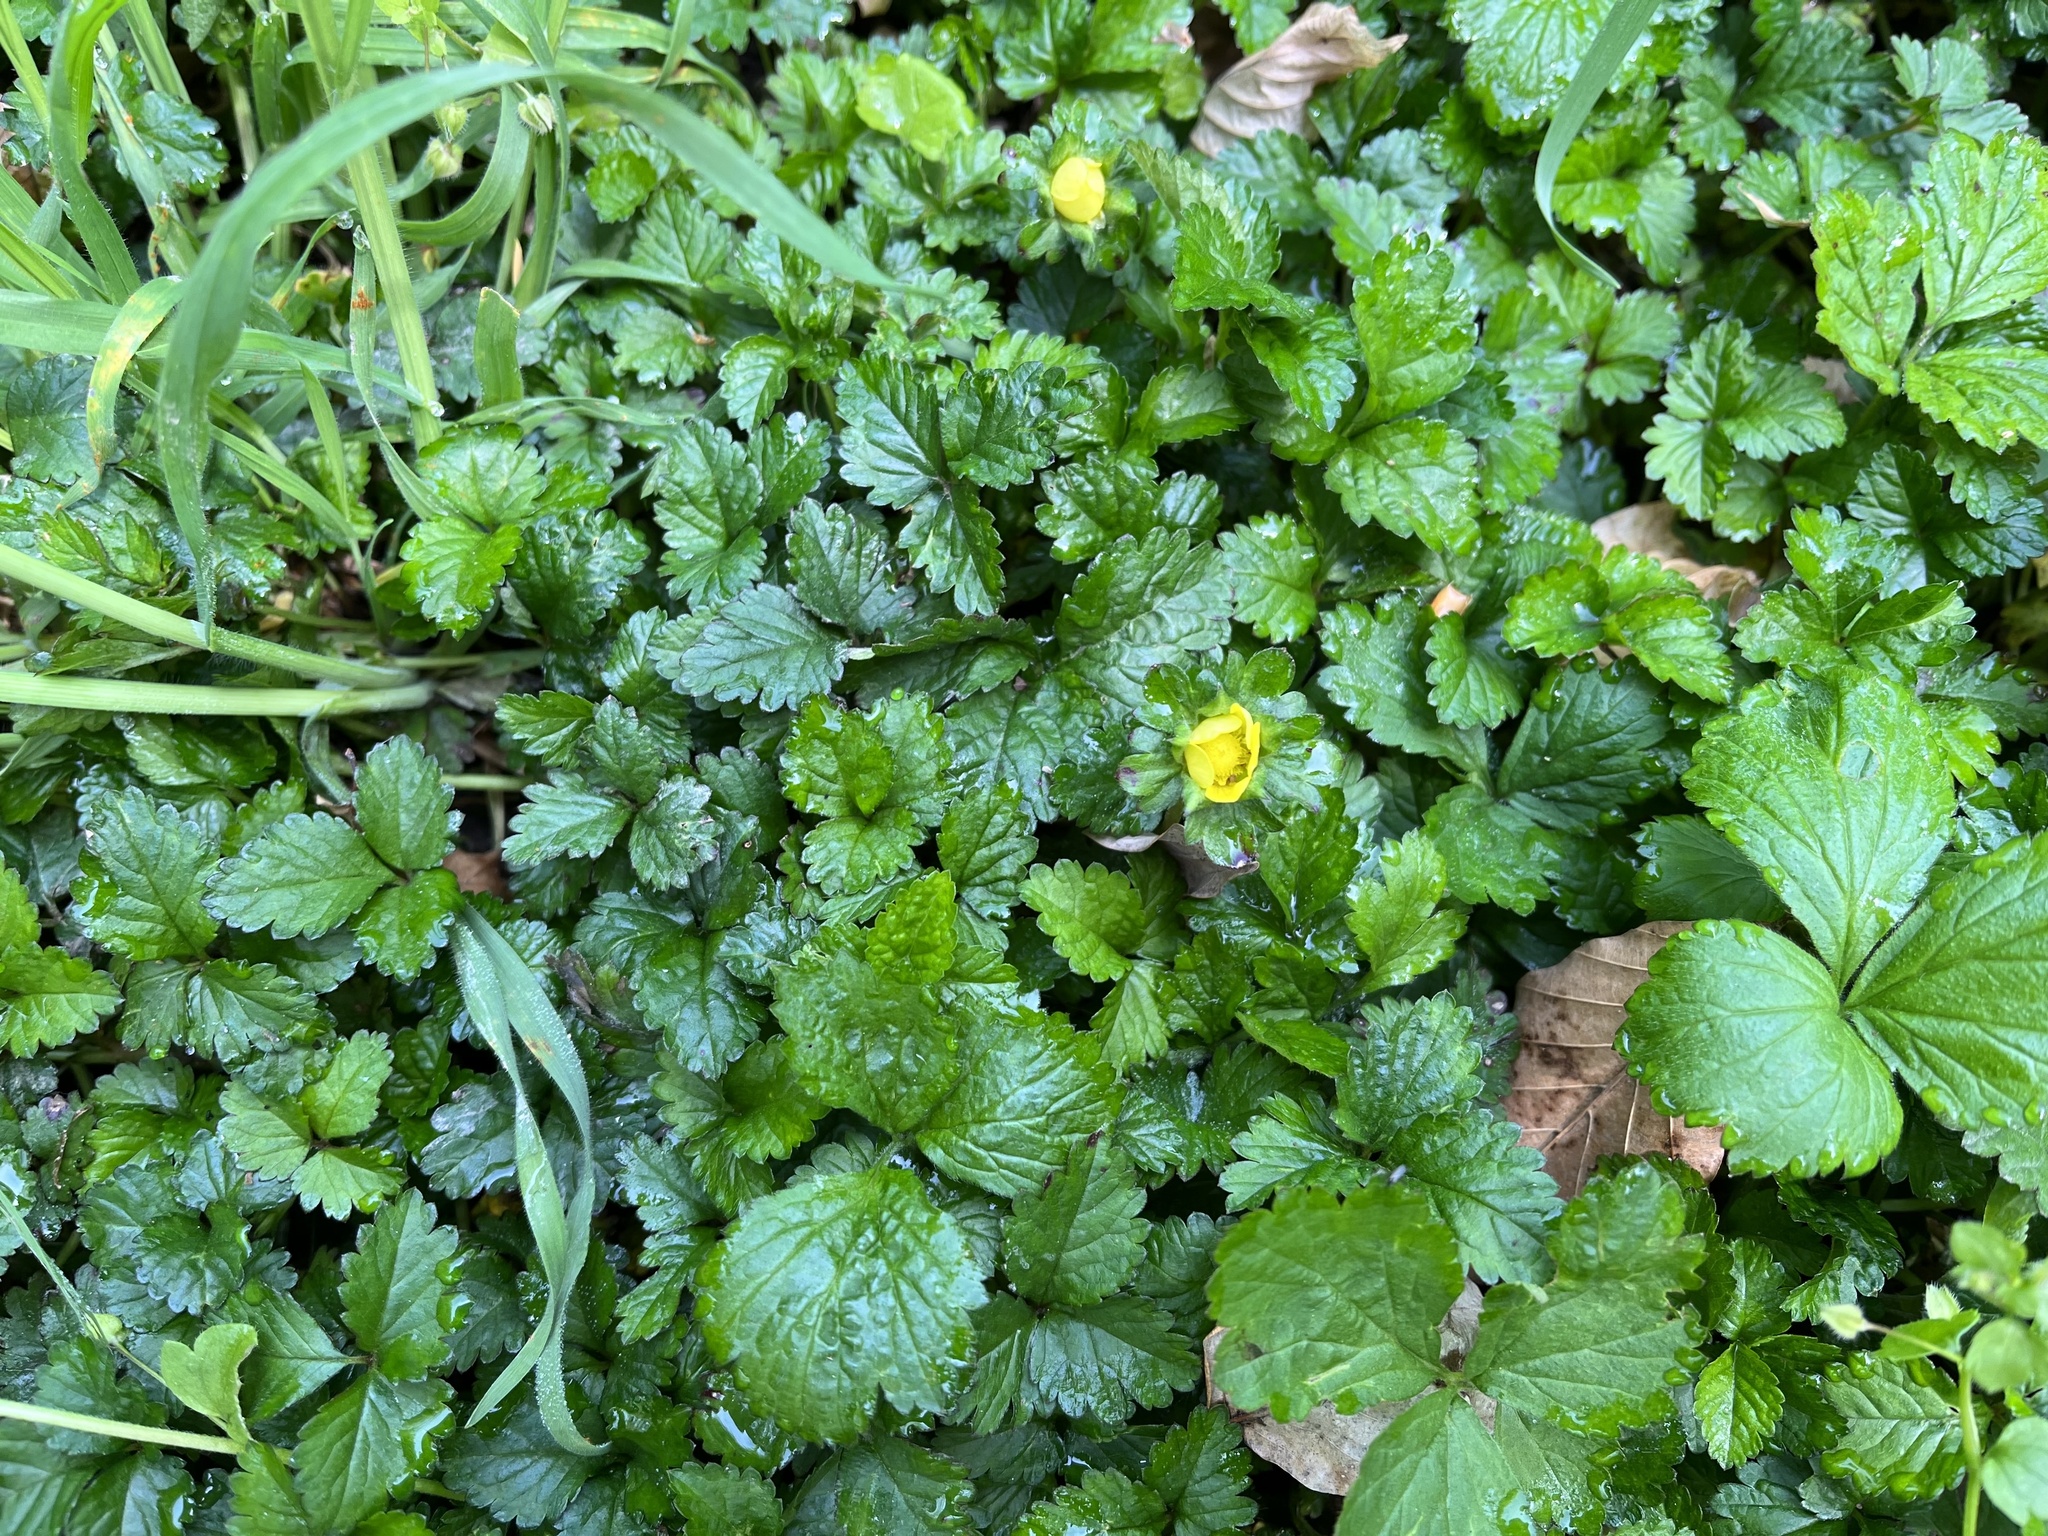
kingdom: Plantae
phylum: Tracheophyta
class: Magnoliopsida
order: Rosales
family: Rosaceae
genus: Potentilla
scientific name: Potentilla indica
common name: Yellow-flowered strawberry
